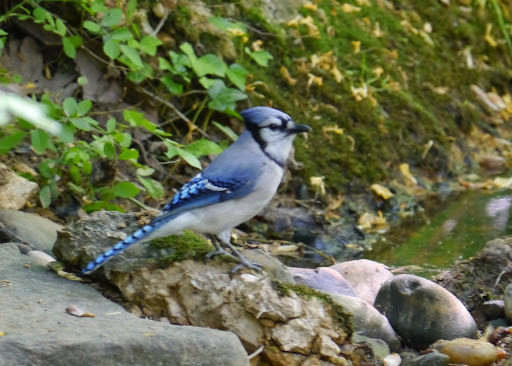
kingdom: Animalia
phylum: Chordata
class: Aves
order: Passeriformes
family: Corvidae
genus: Cyanocitta
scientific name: Cyanocitta cristata
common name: Blue jay
